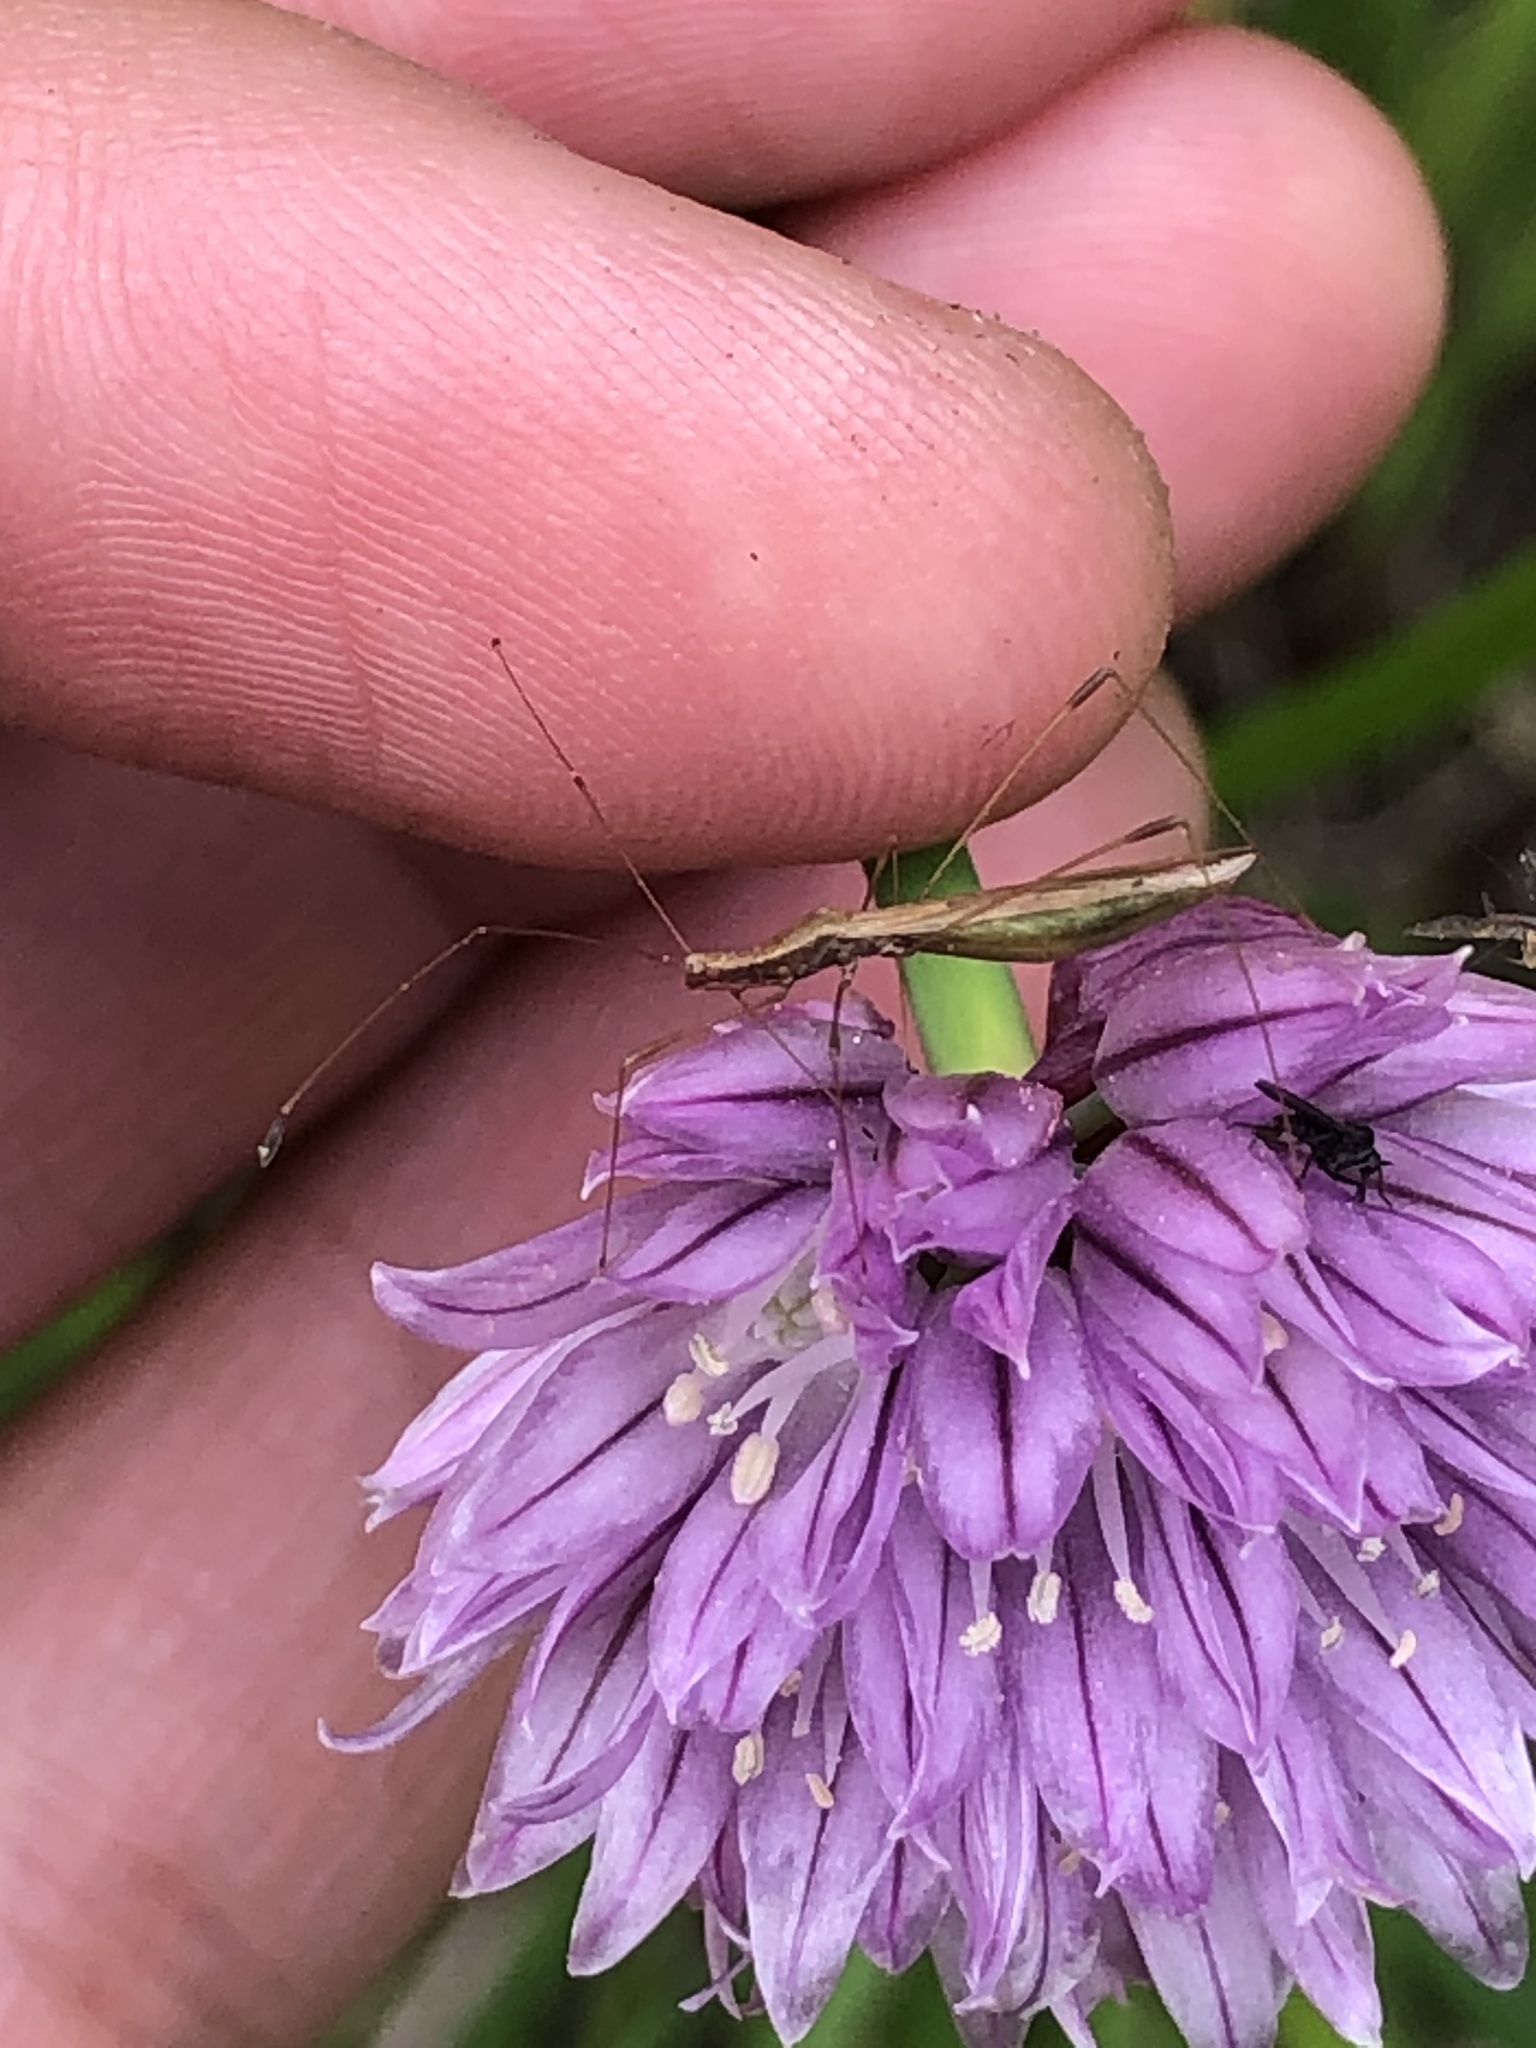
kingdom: Animalia
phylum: Arthropoda
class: Insecta
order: Hemiptera
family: Berytidae
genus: Neoneides
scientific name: Neoneides muticus
